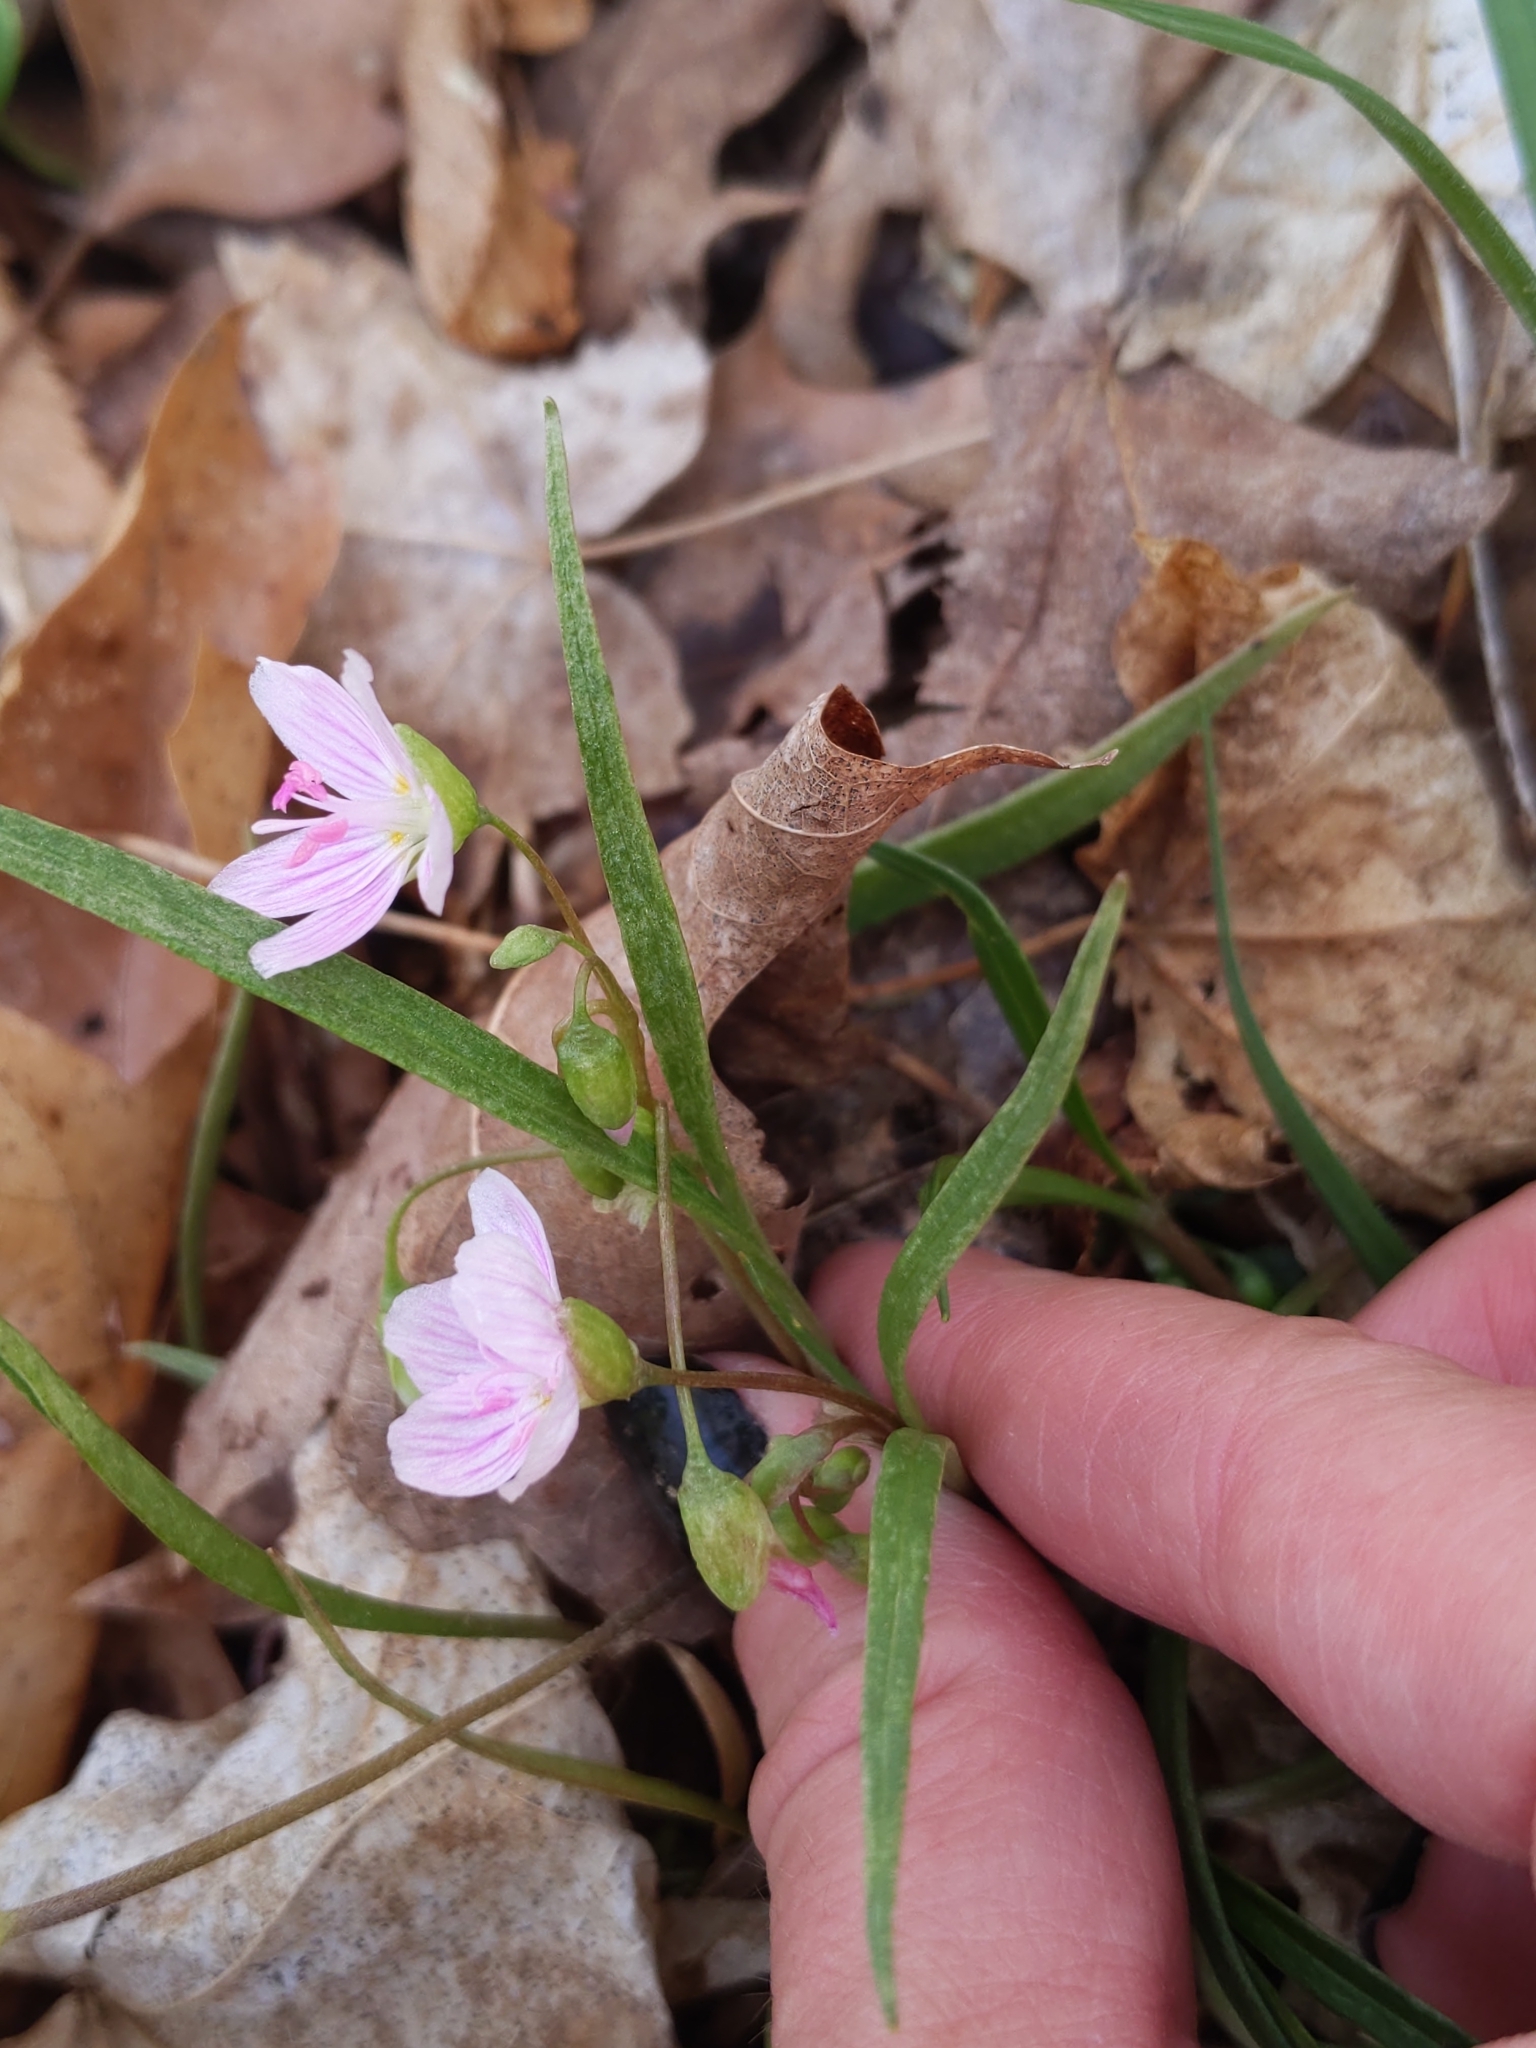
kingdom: Plantae
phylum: Tracheophyta
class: Magnoliopsida
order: Caryophyllales
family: Montiaceae
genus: Claytonia
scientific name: Claytonia virginica
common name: Virginia springbeauty
